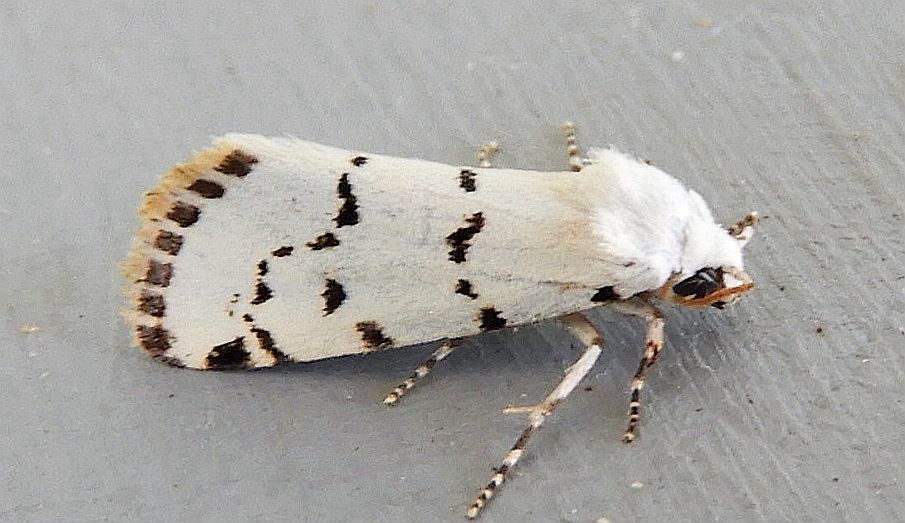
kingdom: Animalia
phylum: Arthropoda
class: Insecta
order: Lepidoptera
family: Noctuidae
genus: Grotella
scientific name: Grotella binda
